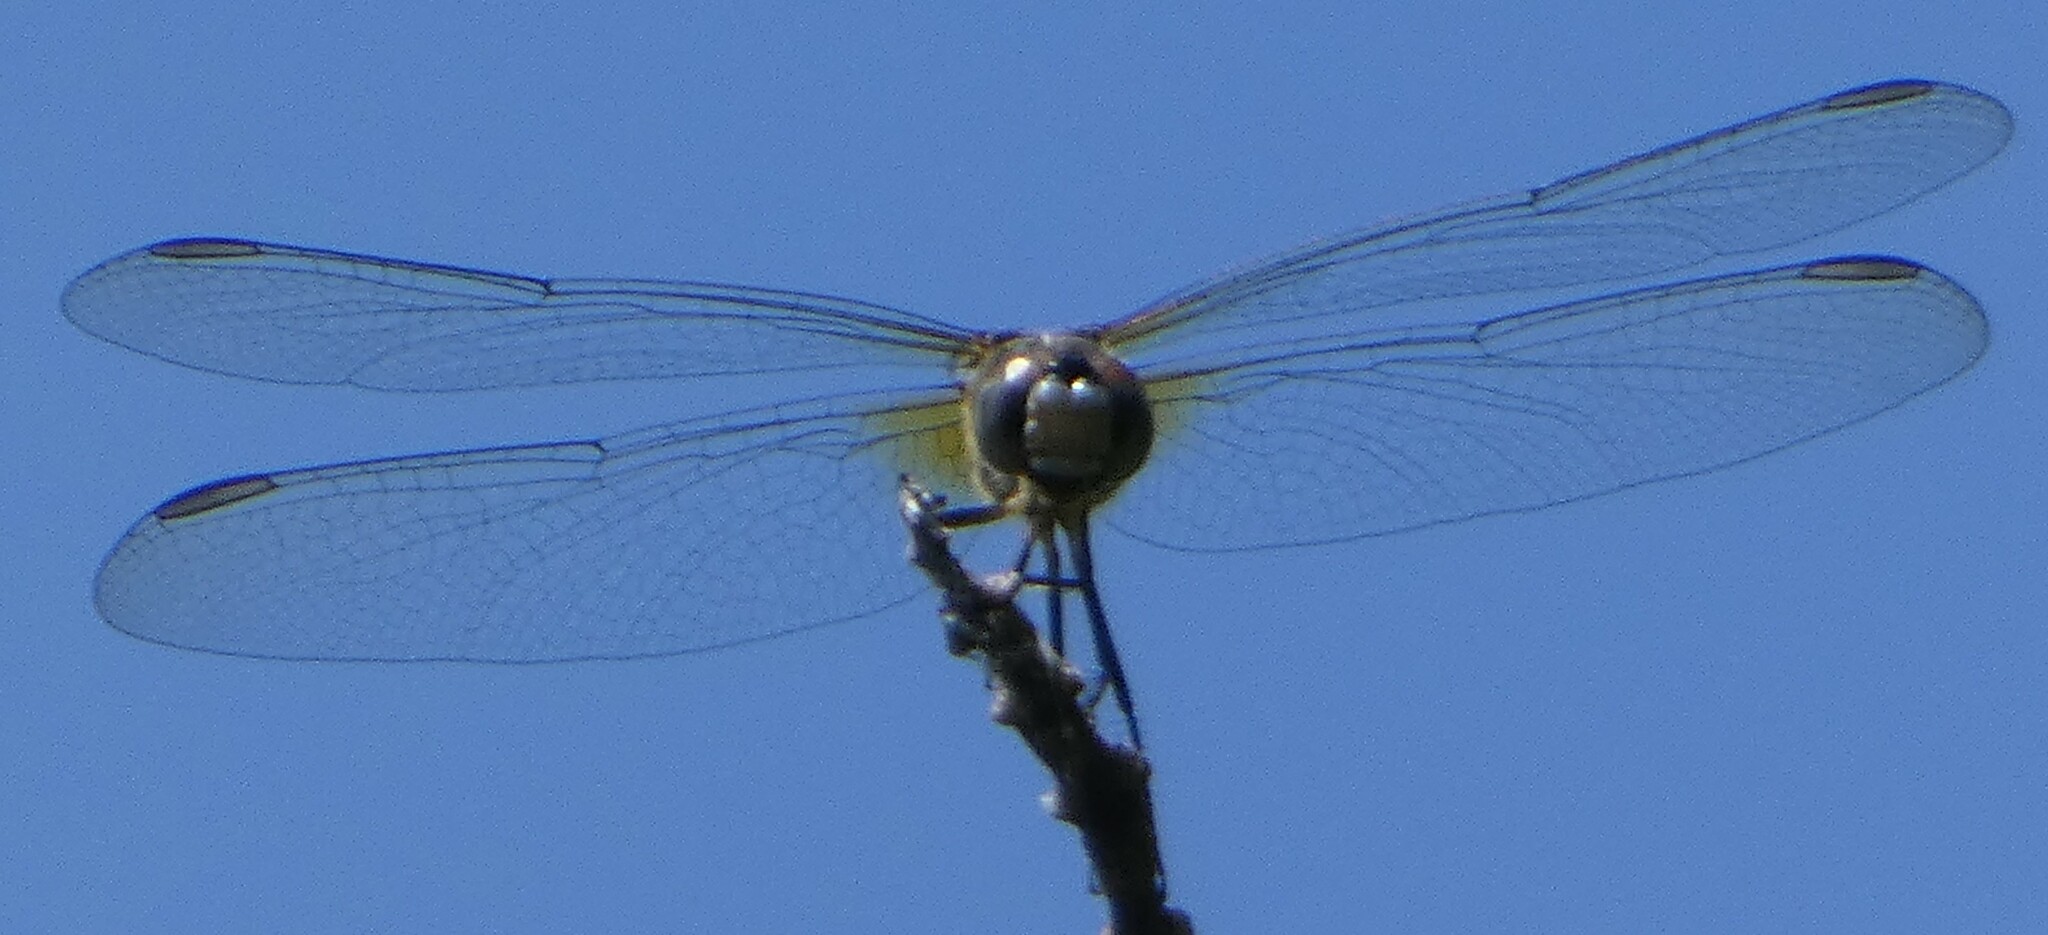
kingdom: Animalia
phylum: Arthropoda
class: Insecta
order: Odonata
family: Libellulidae
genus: Pachydiplax
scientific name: Pachydiplax longipennis
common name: Blue dasher
